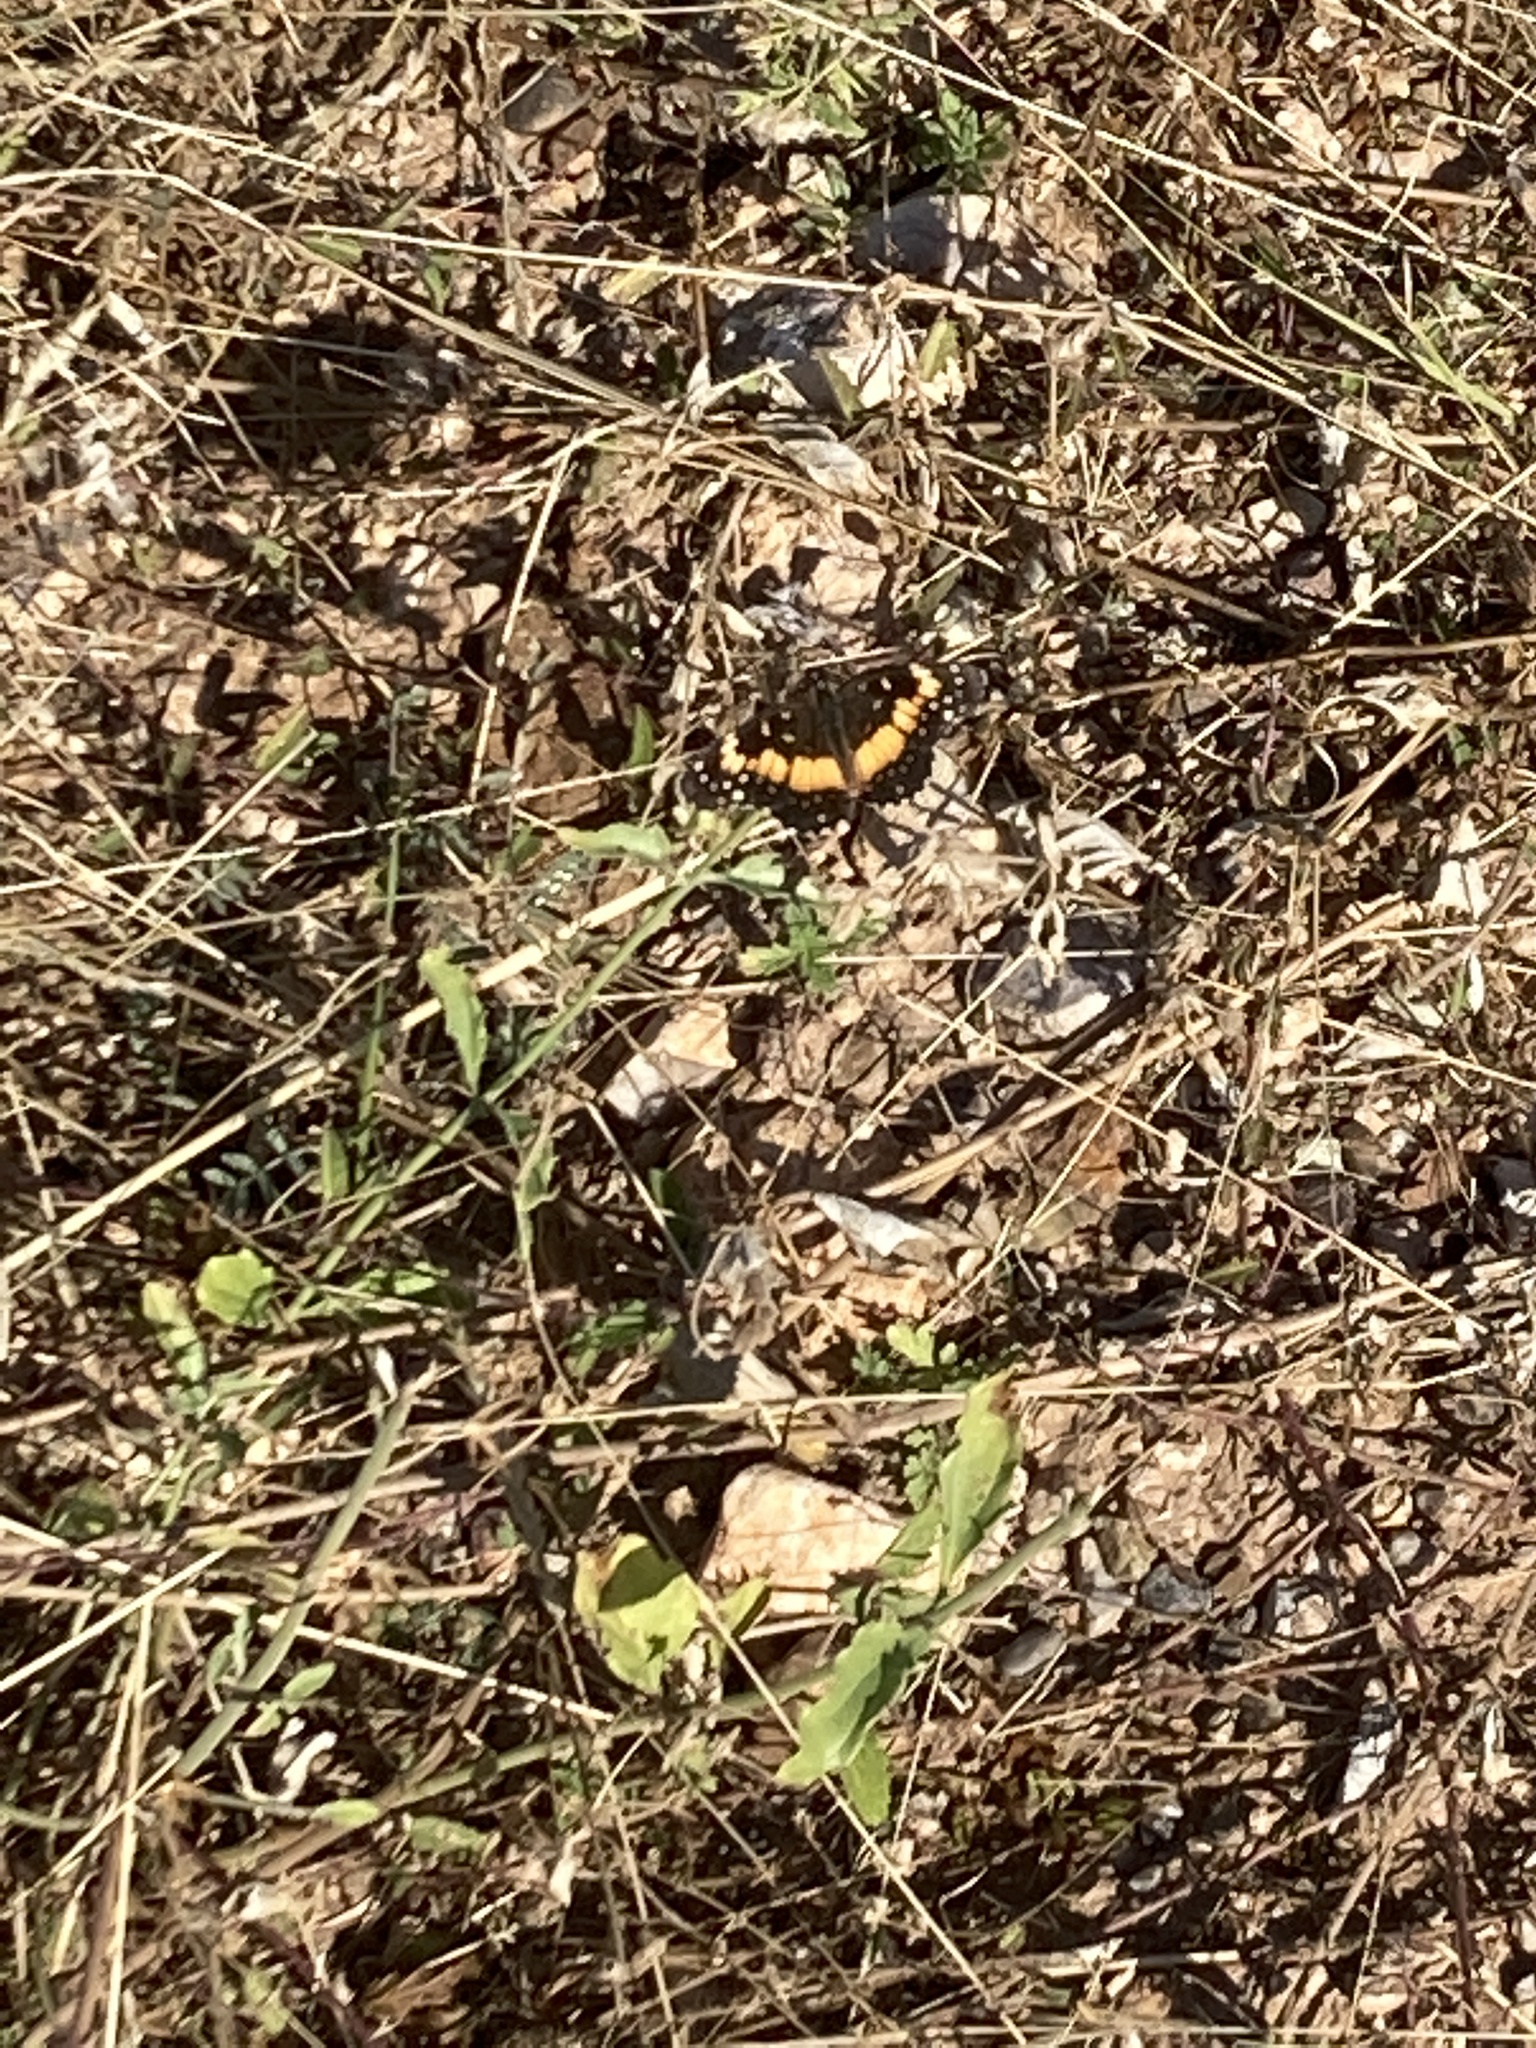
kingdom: Animalia
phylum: Arthropoda
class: Insecta
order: Lepidoptera
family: Nymphalidae
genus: Chlosyne
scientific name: Chlosyne lacinia
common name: Bordered patch
